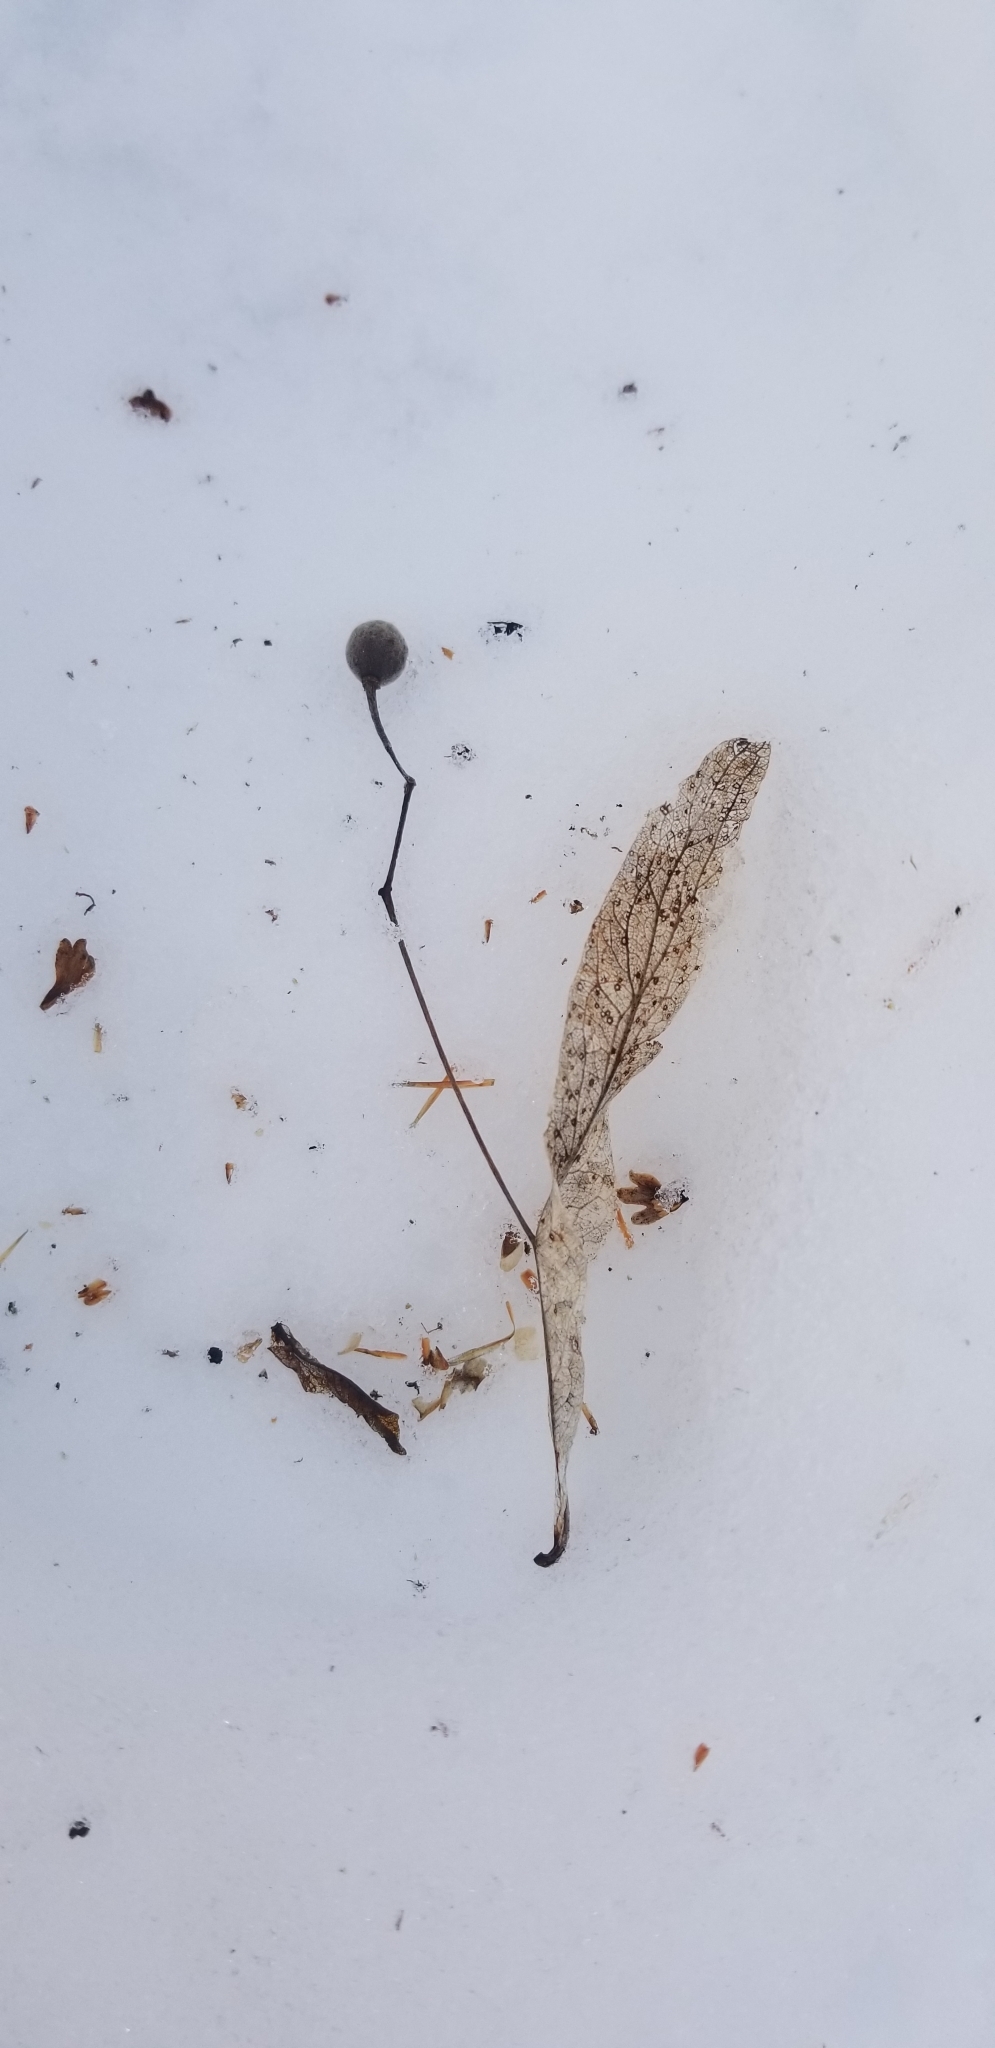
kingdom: Plantae
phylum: Tracheophyta
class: Magnoliopsida
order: Malvales
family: Malvaceae
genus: Tilia
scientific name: Tilia americana
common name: Basswood
